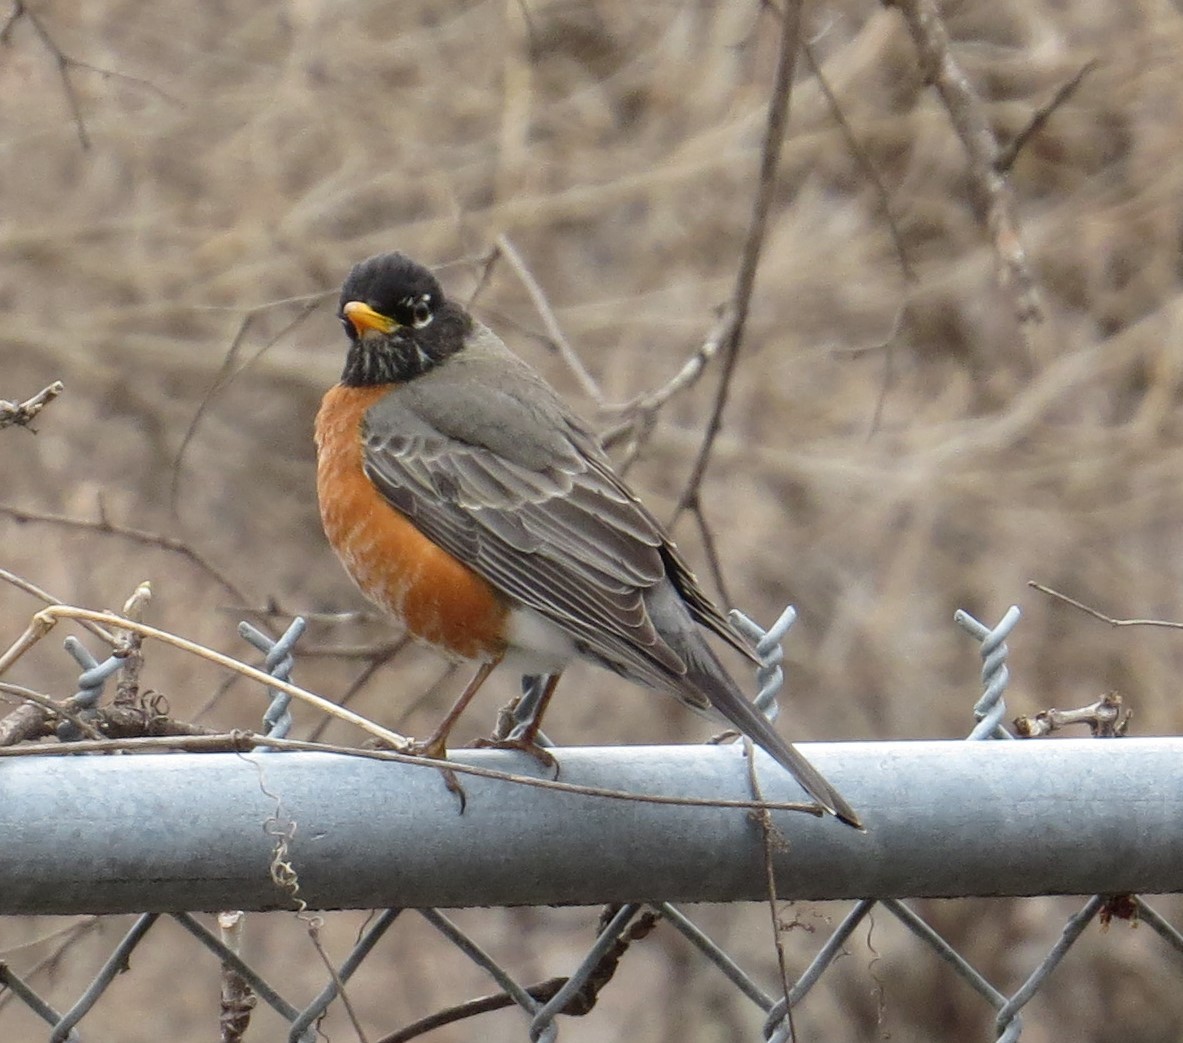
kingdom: Animalia
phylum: Chordata
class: Aves
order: Passeriformes
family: Turdidae
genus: Turdus
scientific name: Turdus migratorius
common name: American robin
